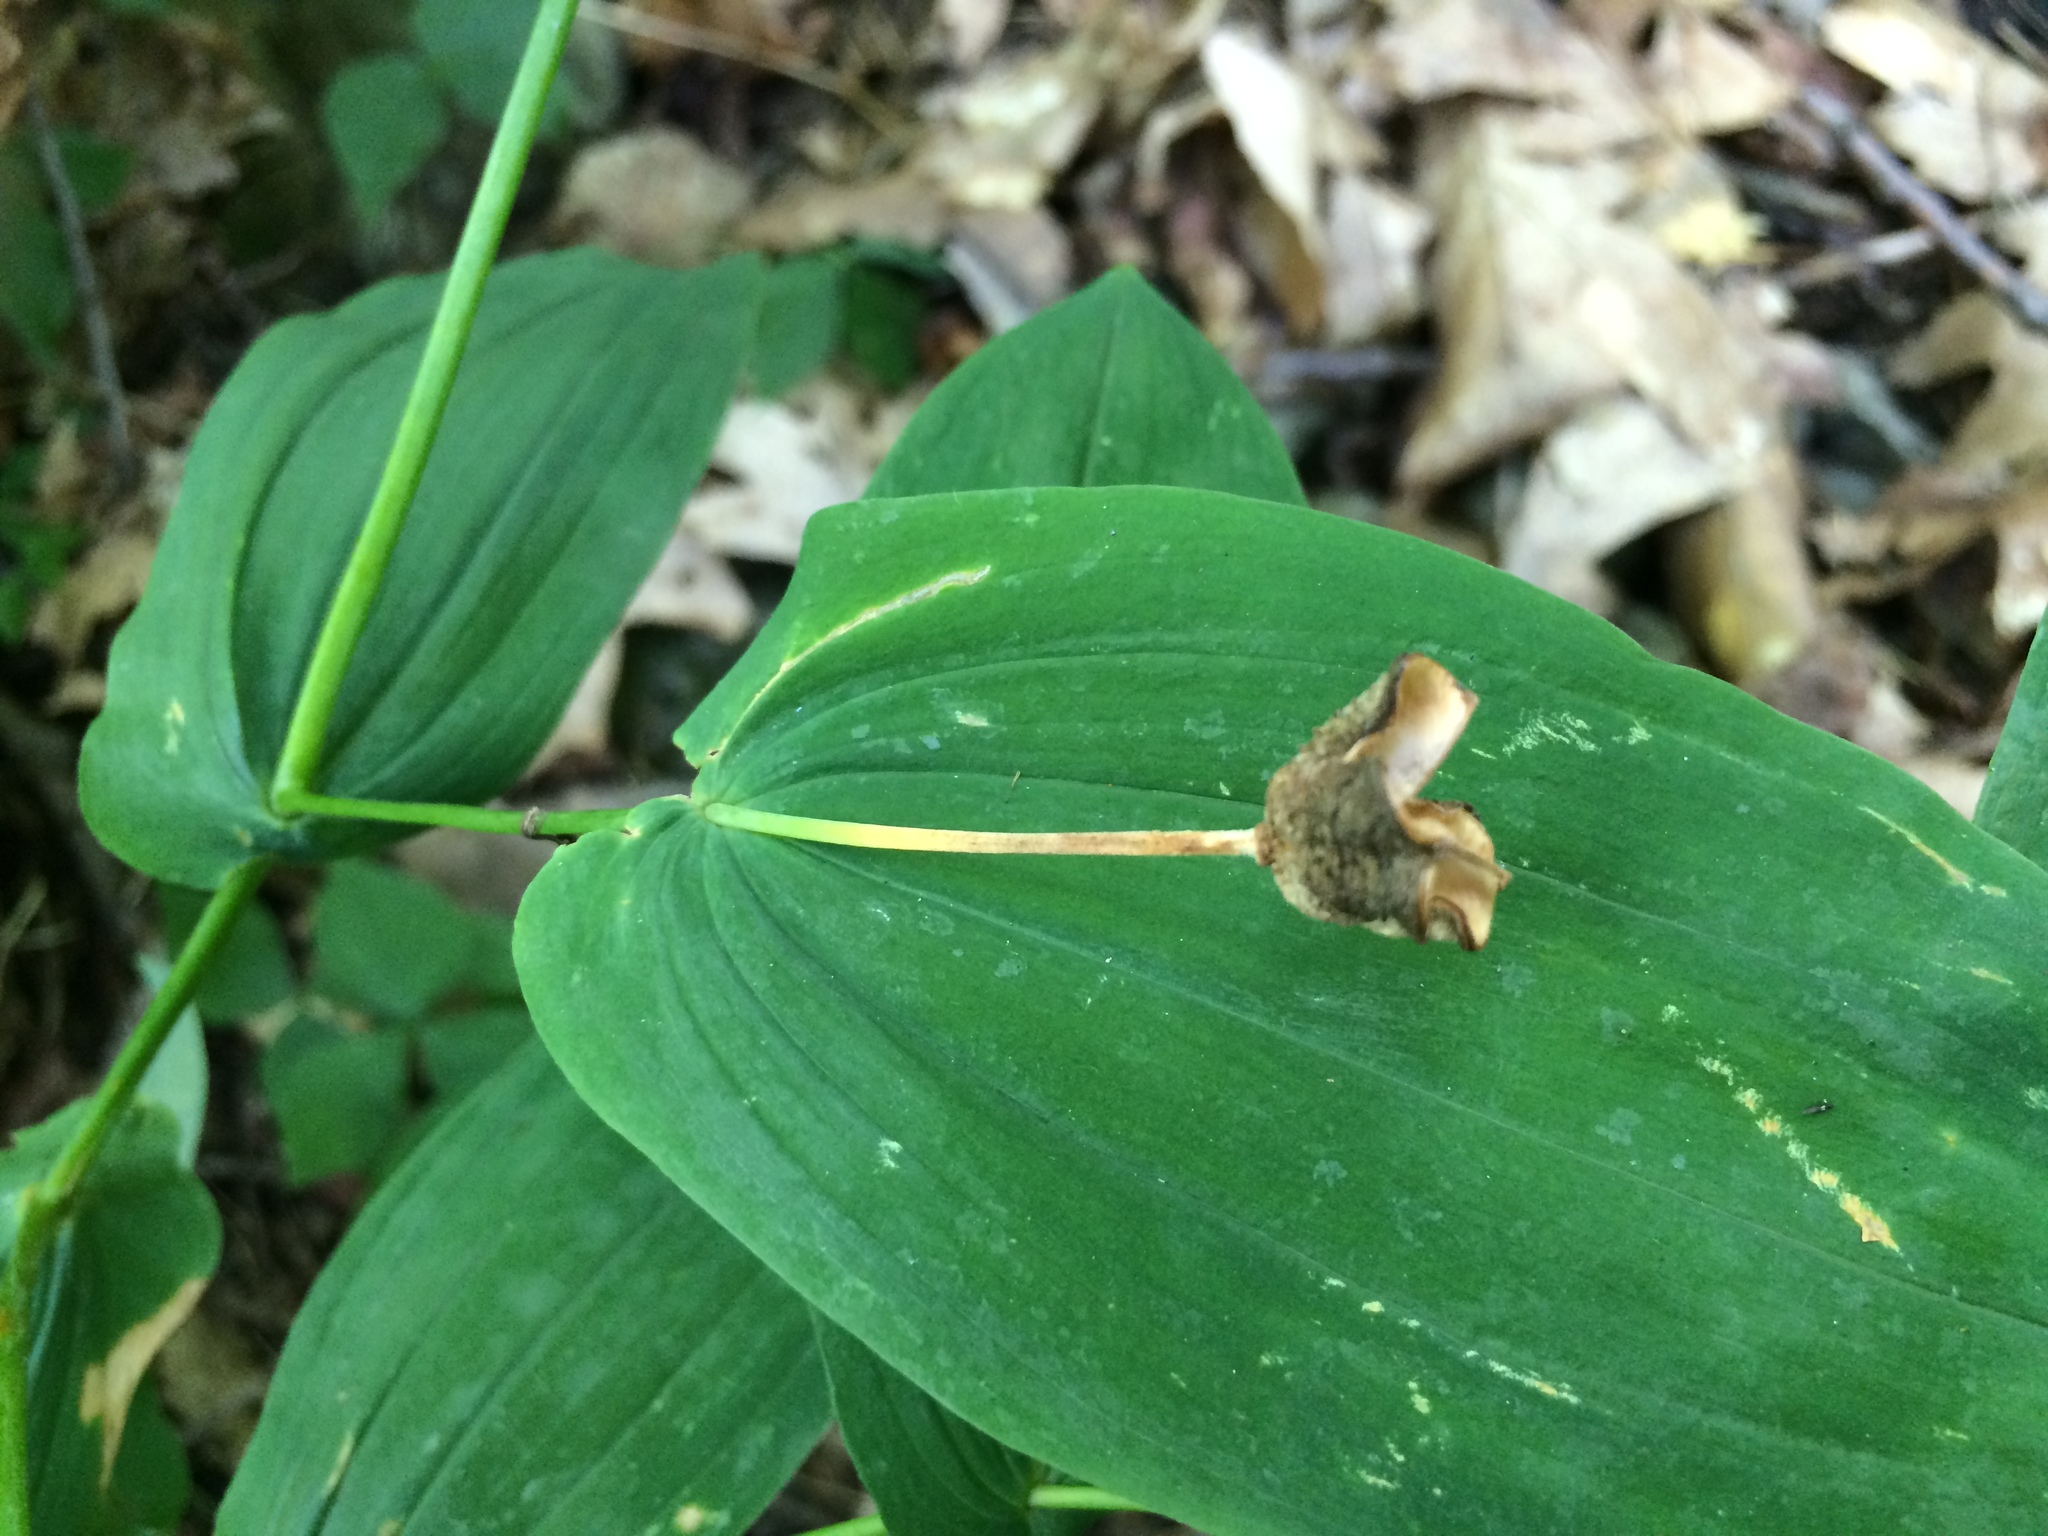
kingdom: Plantae
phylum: Tracheophyta
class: Liliopsida
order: Liliales
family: Colchicaceae
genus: Uvularia
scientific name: Uvularia grandiflora
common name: Bellwort
